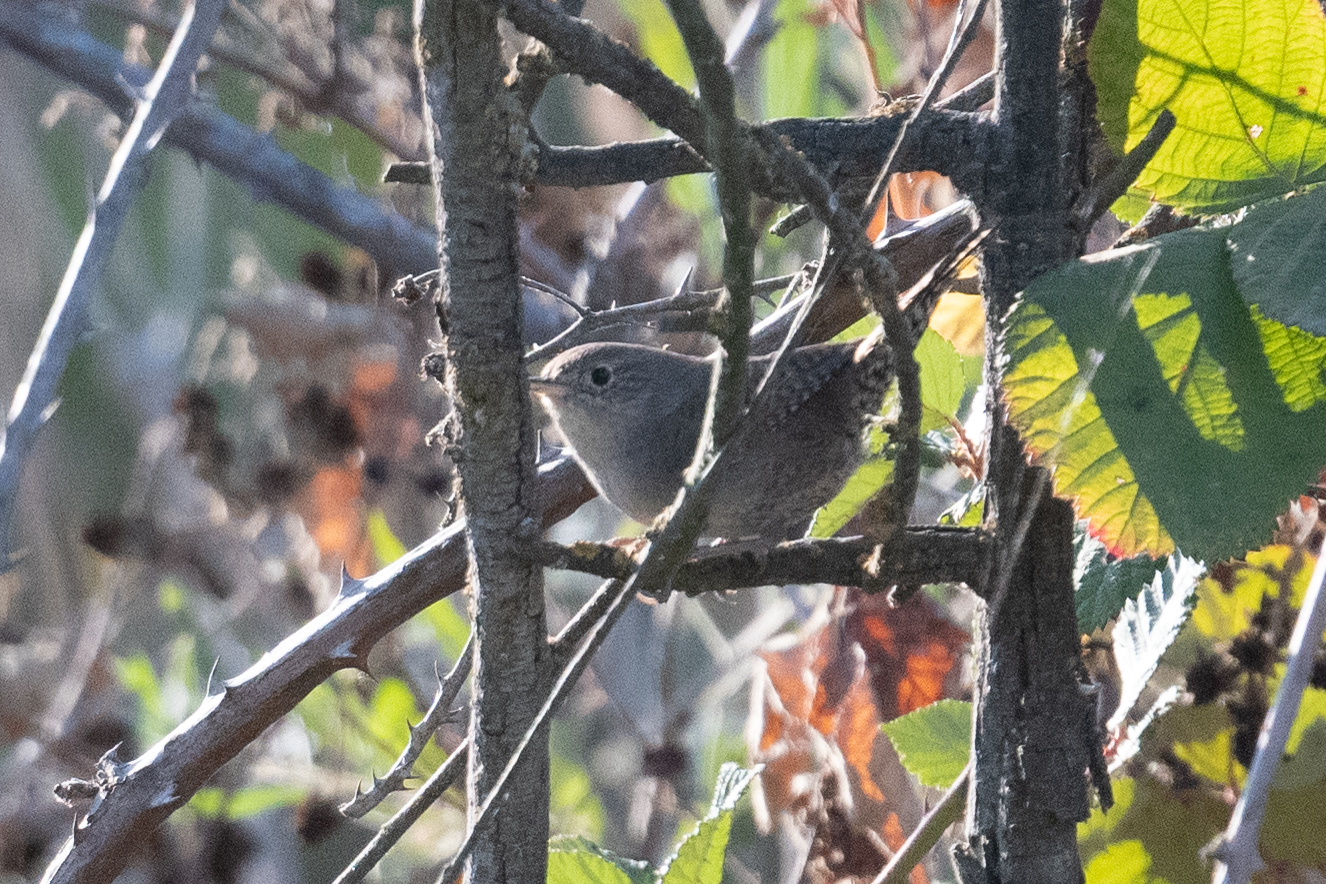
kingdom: Animalia
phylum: Chordata
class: Aves
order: Passeriformes
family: Troglodytidae
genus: Troglodytes
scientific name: Troglodytes aedon
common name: House wren
